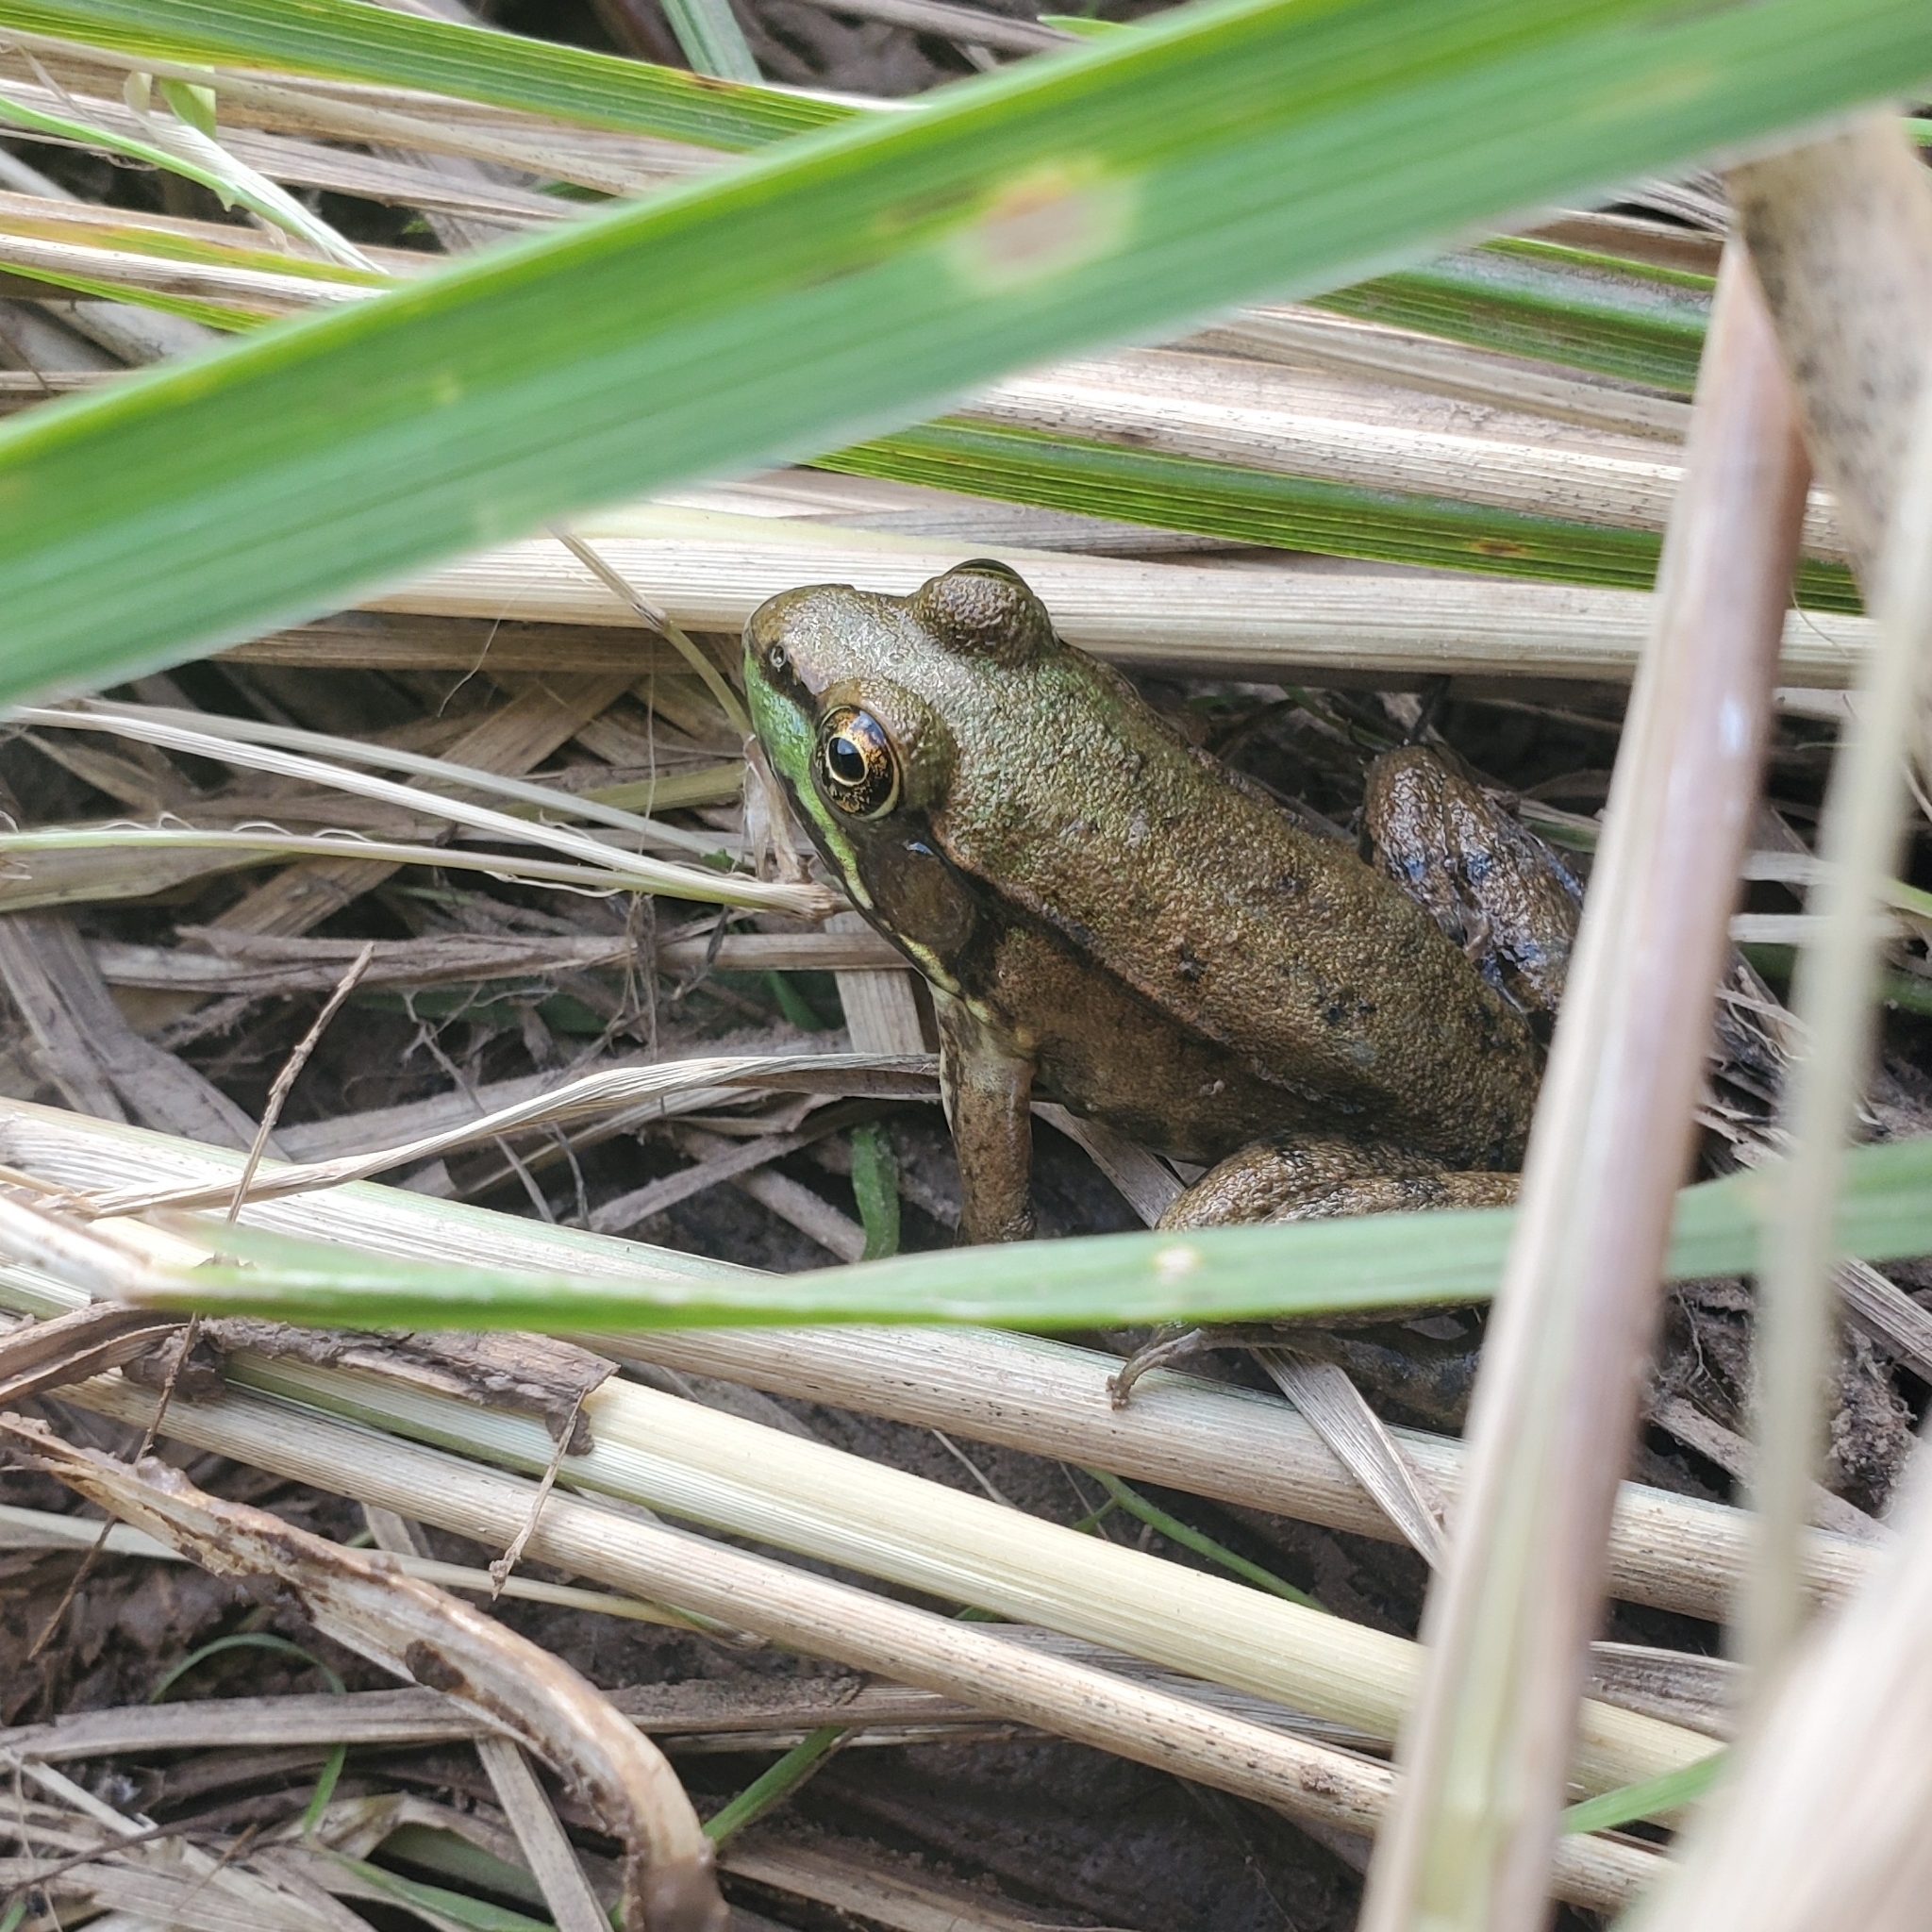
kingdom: Animalia
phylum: Chordata
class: Amphibia
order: Anura
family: Ranidae
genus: Lithobates
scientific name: Lithobates clamitans
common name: Green frog
